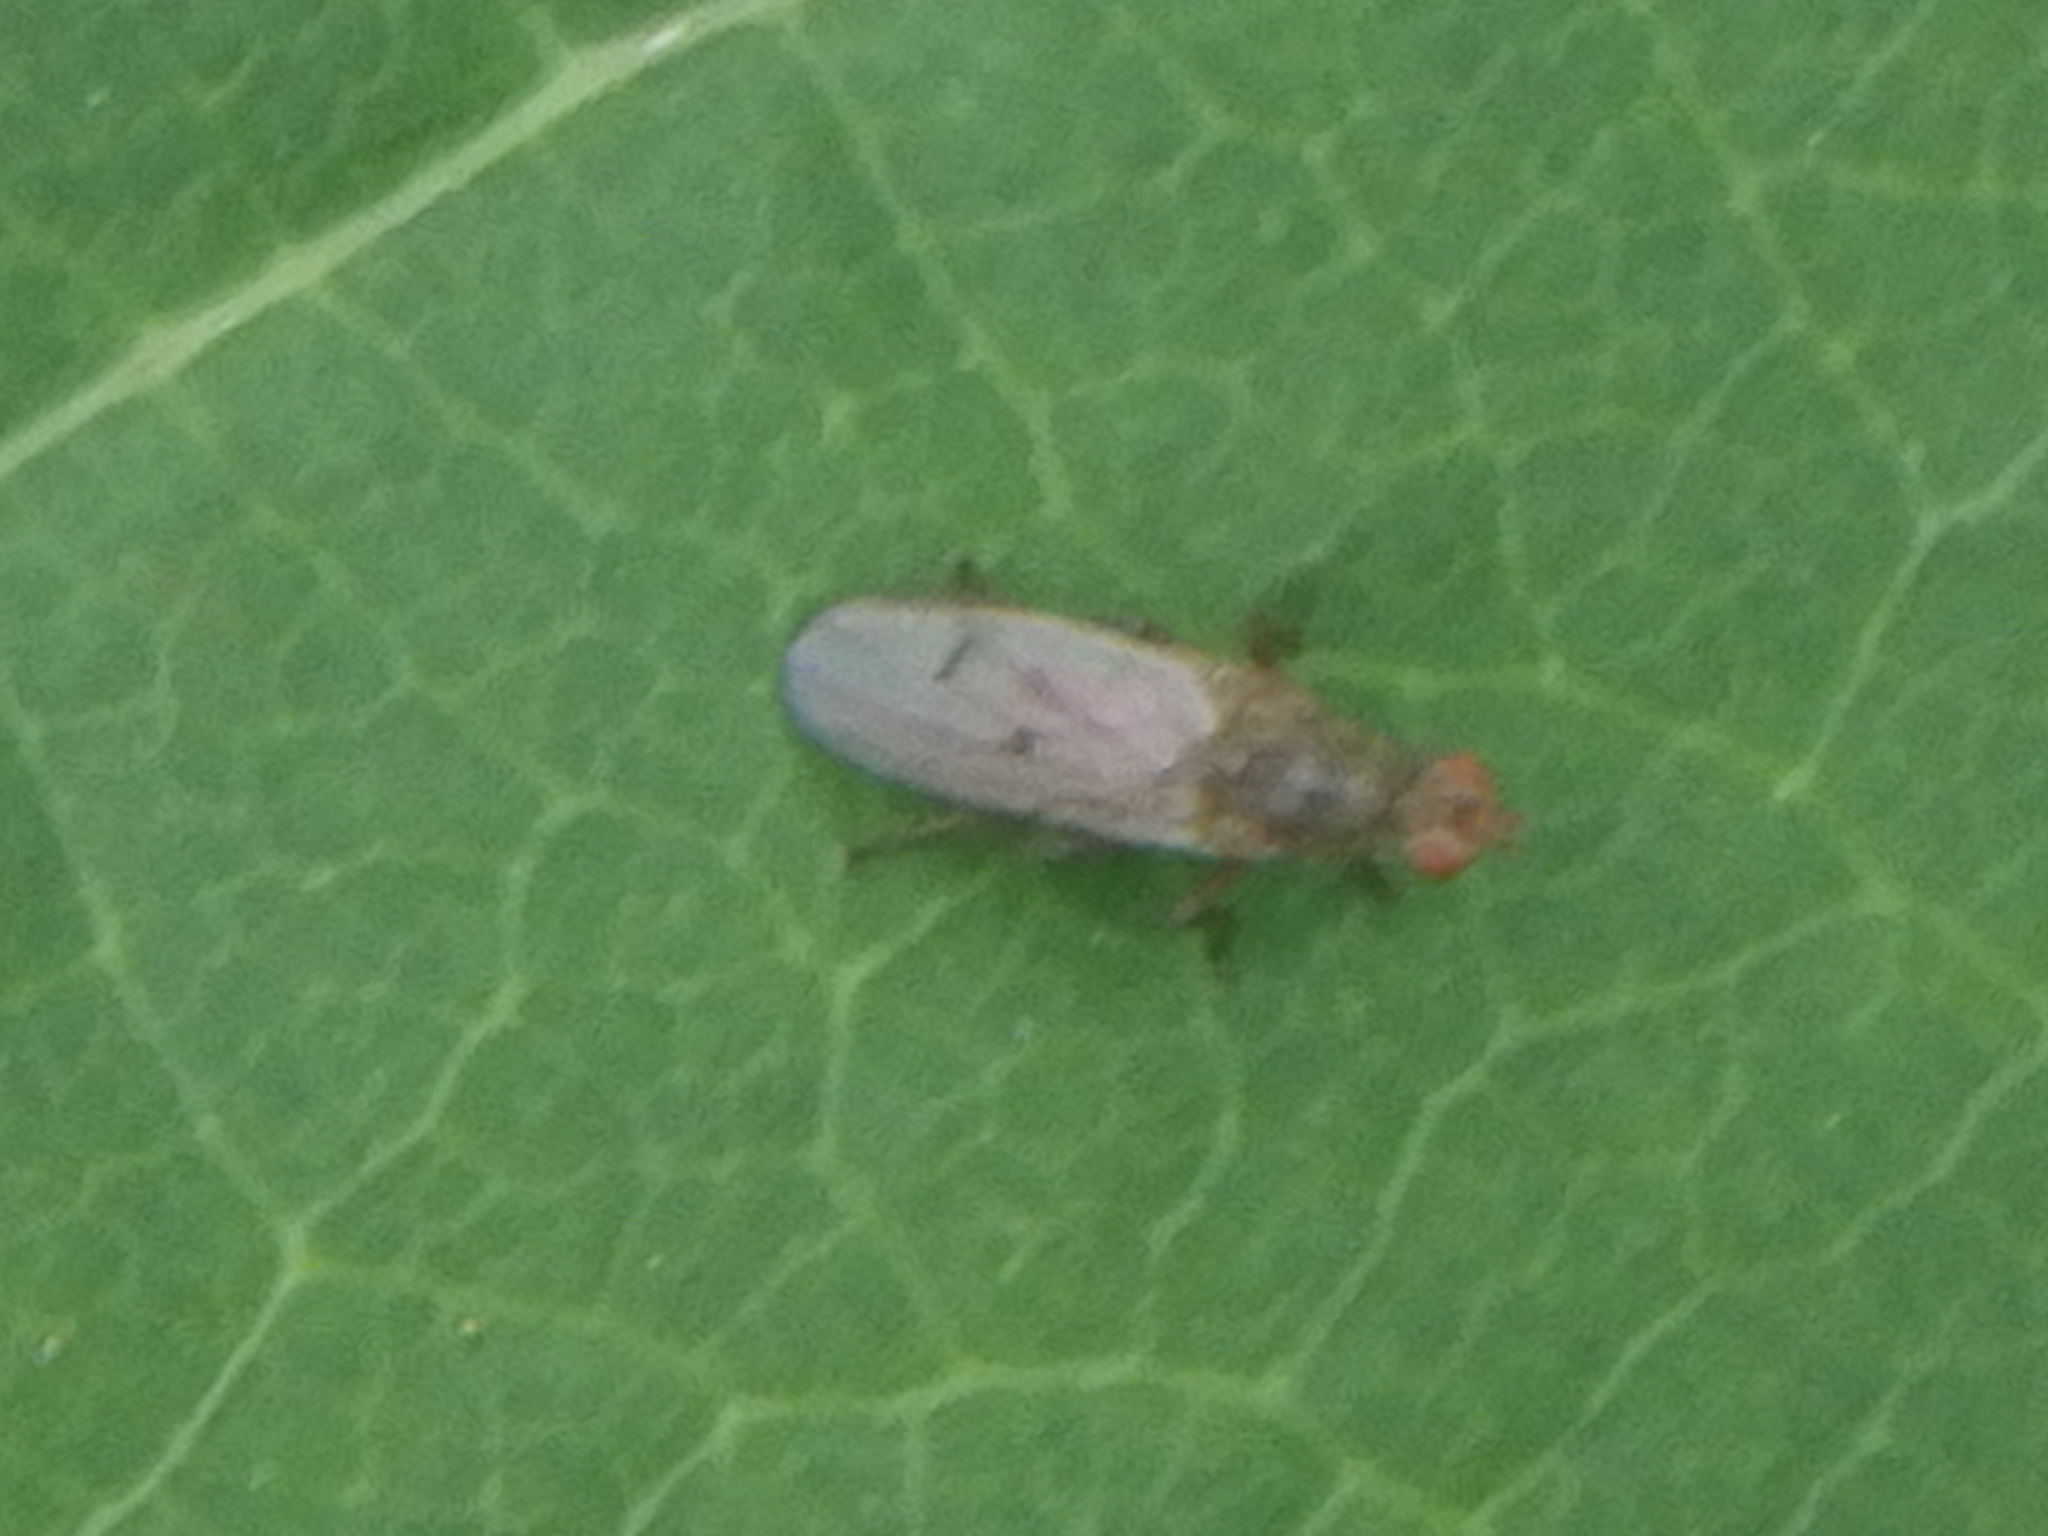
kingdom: Animalia
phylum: Arthropoda
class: Insecta
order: Diptera
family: Scathophagidae
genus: Scathophaga
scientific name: Scathophaga
